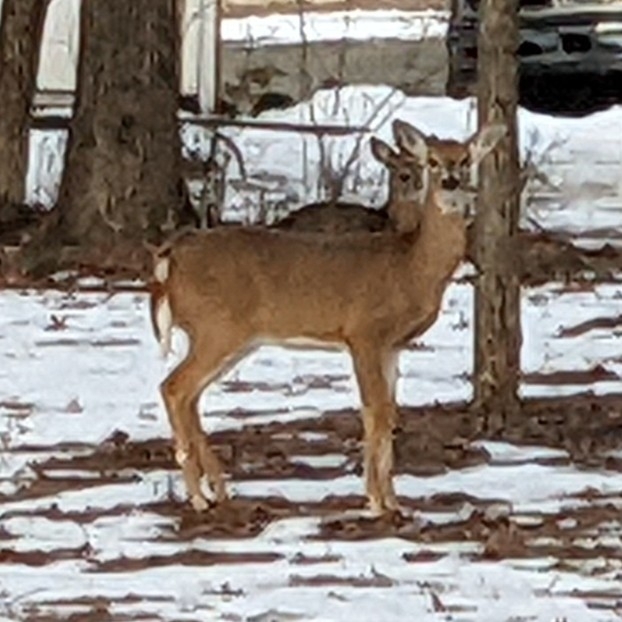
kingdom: Animalia
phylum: Chordata
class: Mammalia
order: Artiodactyla
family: Cervidae
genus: Odocoileus
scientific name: Odocoileus virginianus
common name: White-tailed deer
